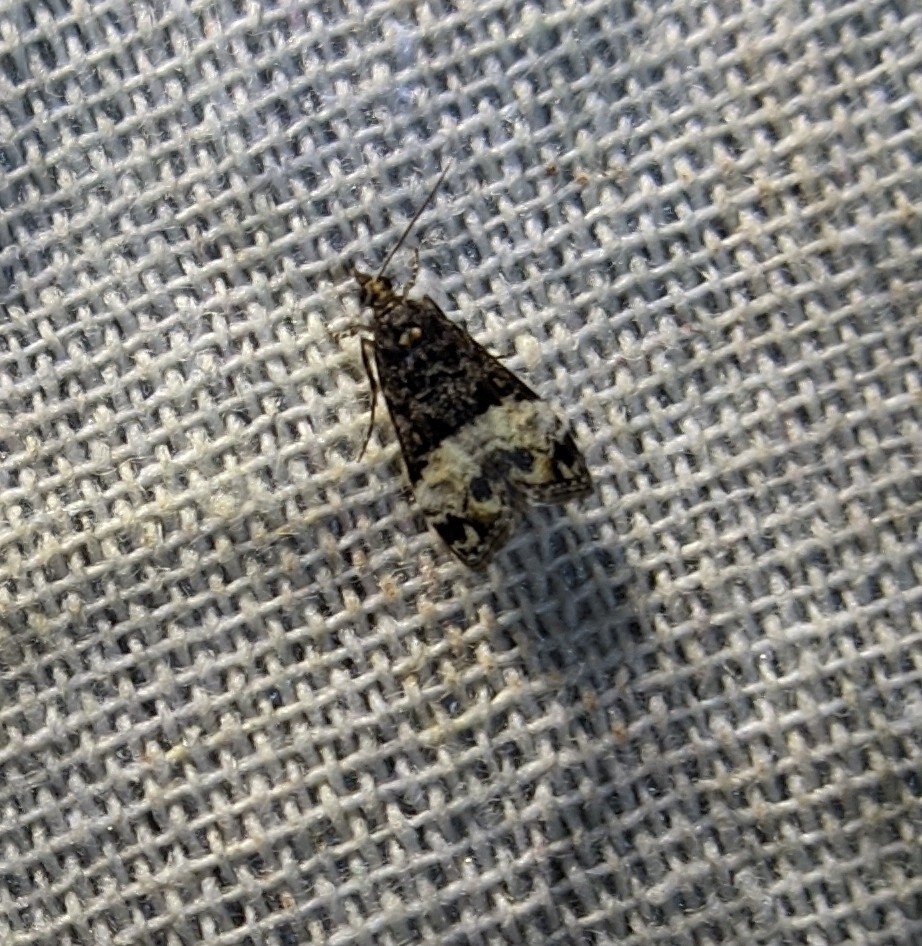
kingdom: Animalia
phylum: Arthropoda
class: Insecta
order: Lepidoptera
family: Crambidae
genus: Scoparia
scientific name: Scoparia minusculalis
